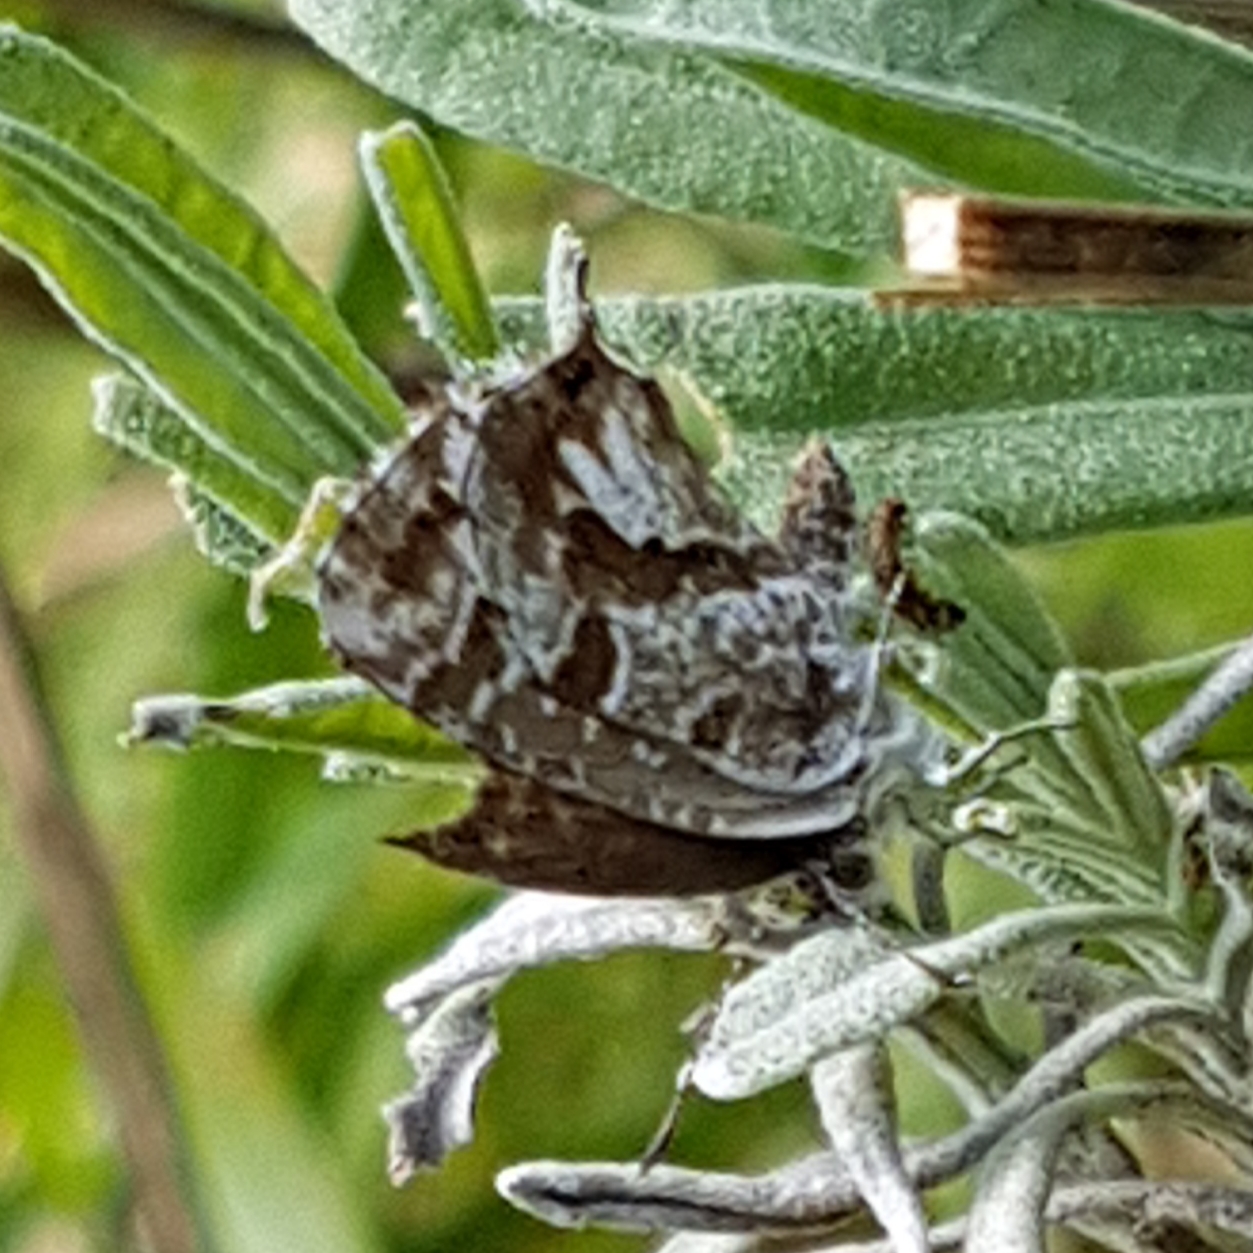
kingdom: Animalia
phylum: Arthropoda
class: Insecta
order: Lepidoptera
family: Lycaenidae
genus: Cacyreus
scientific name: Cacyreus marshalli
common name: Geranium bronze
